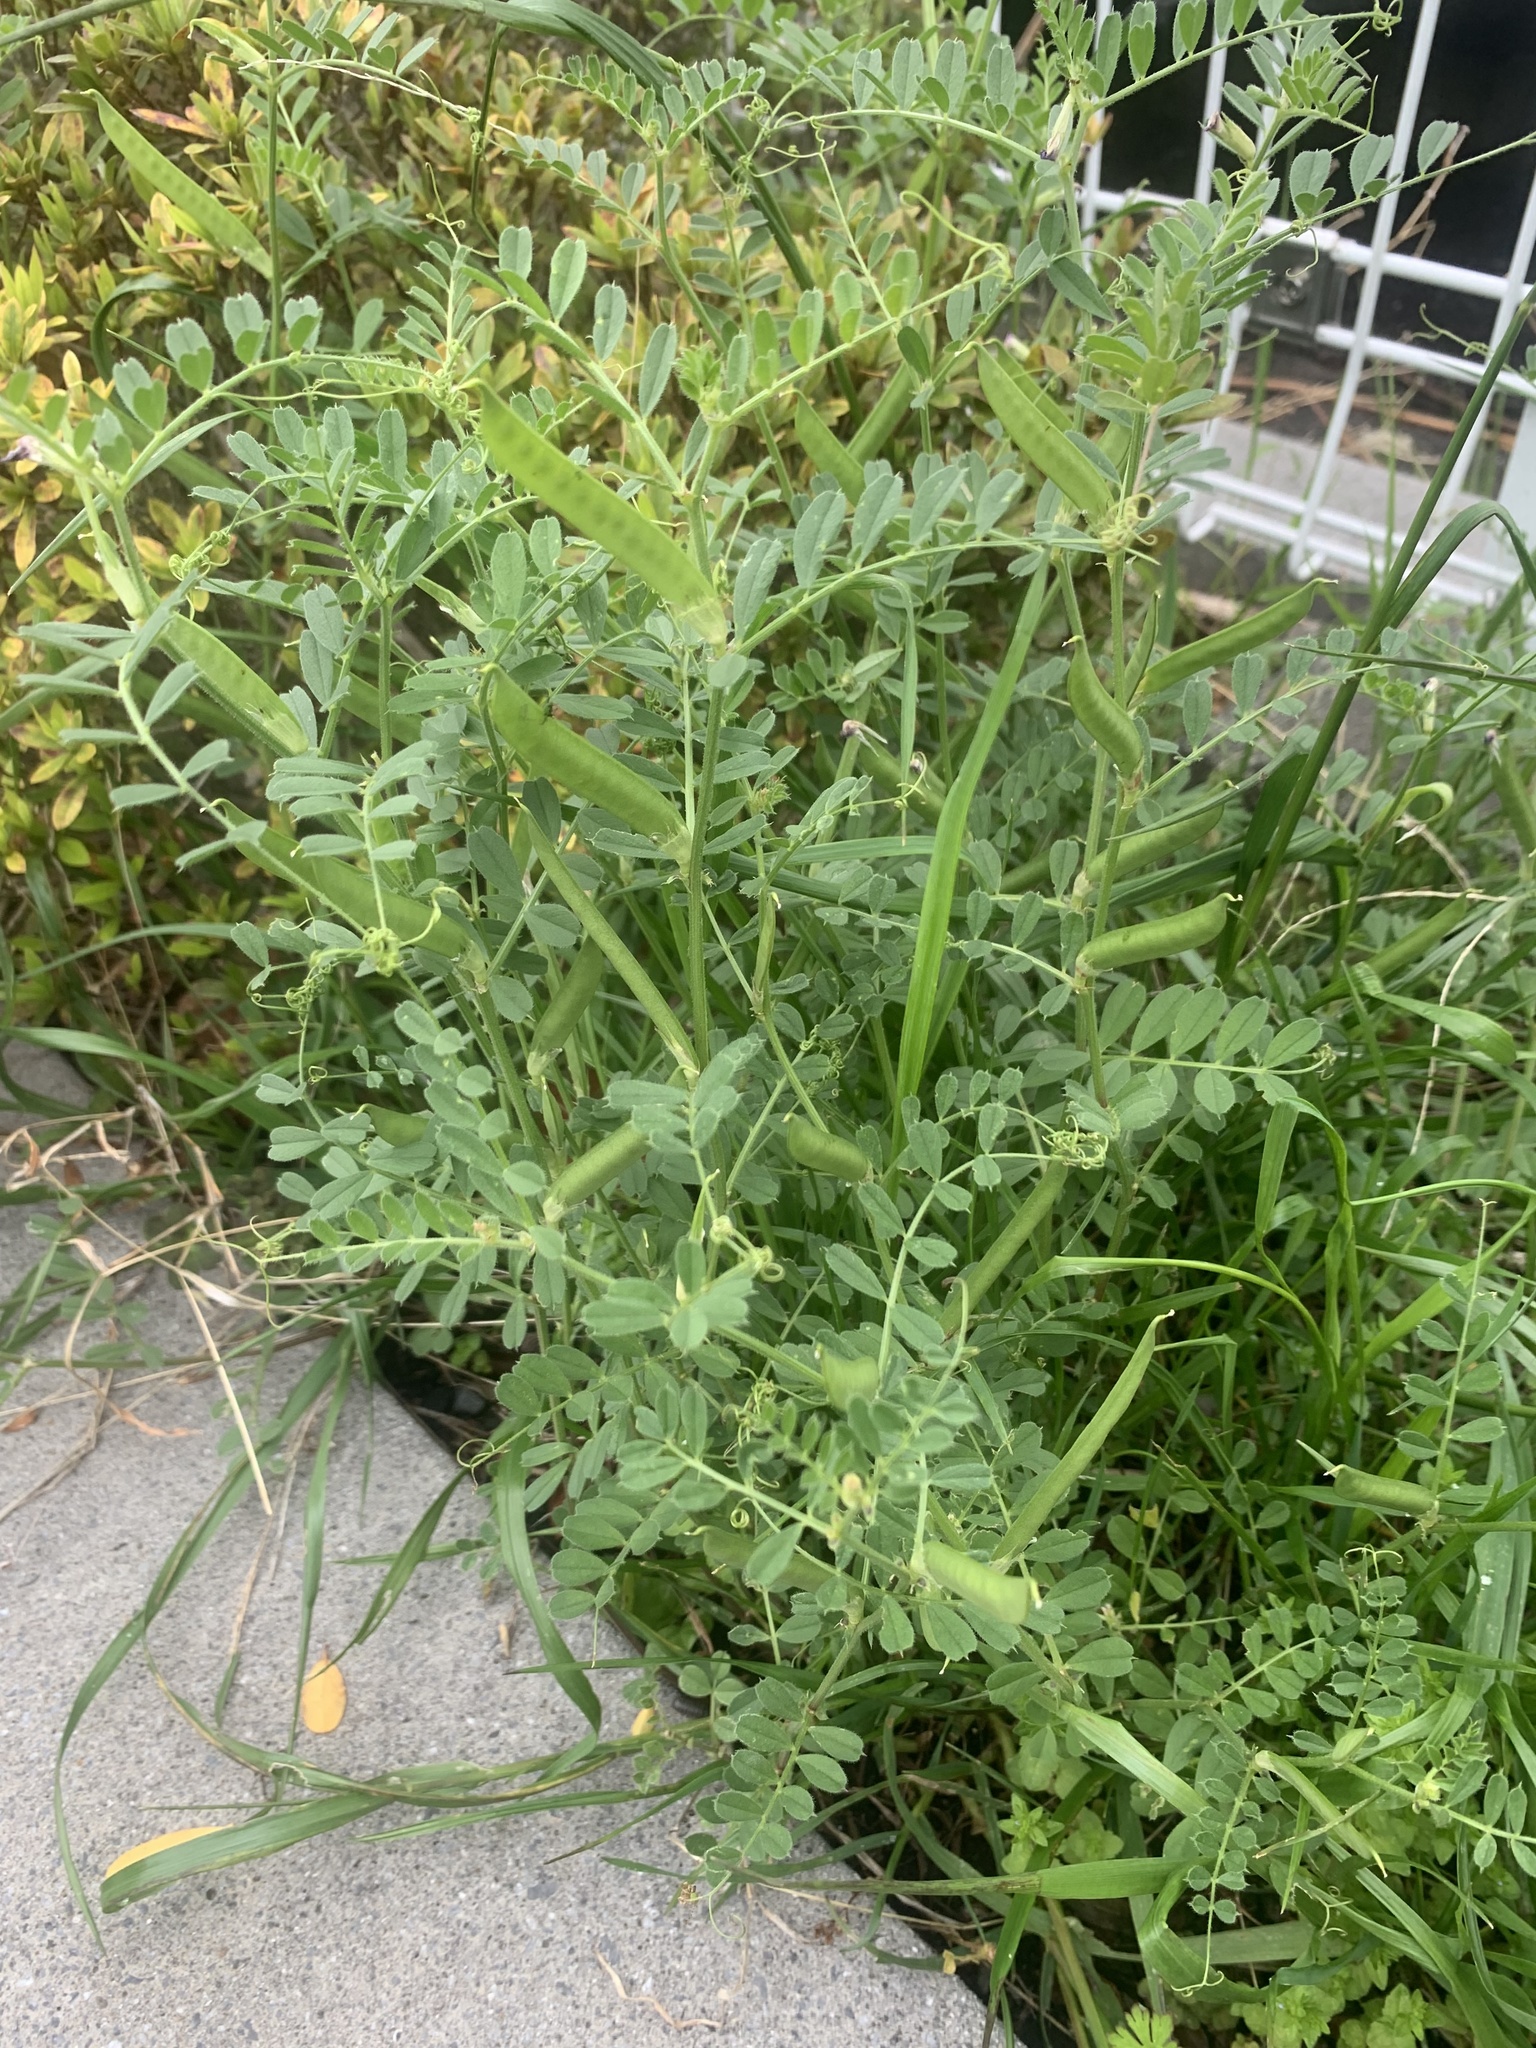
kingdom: Plantae
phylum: Tracheophyta
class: Magnoliopsida
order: Fabales
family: Fabaceae
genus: Vicia
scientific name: Vicia sativa
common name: Garden vetch
